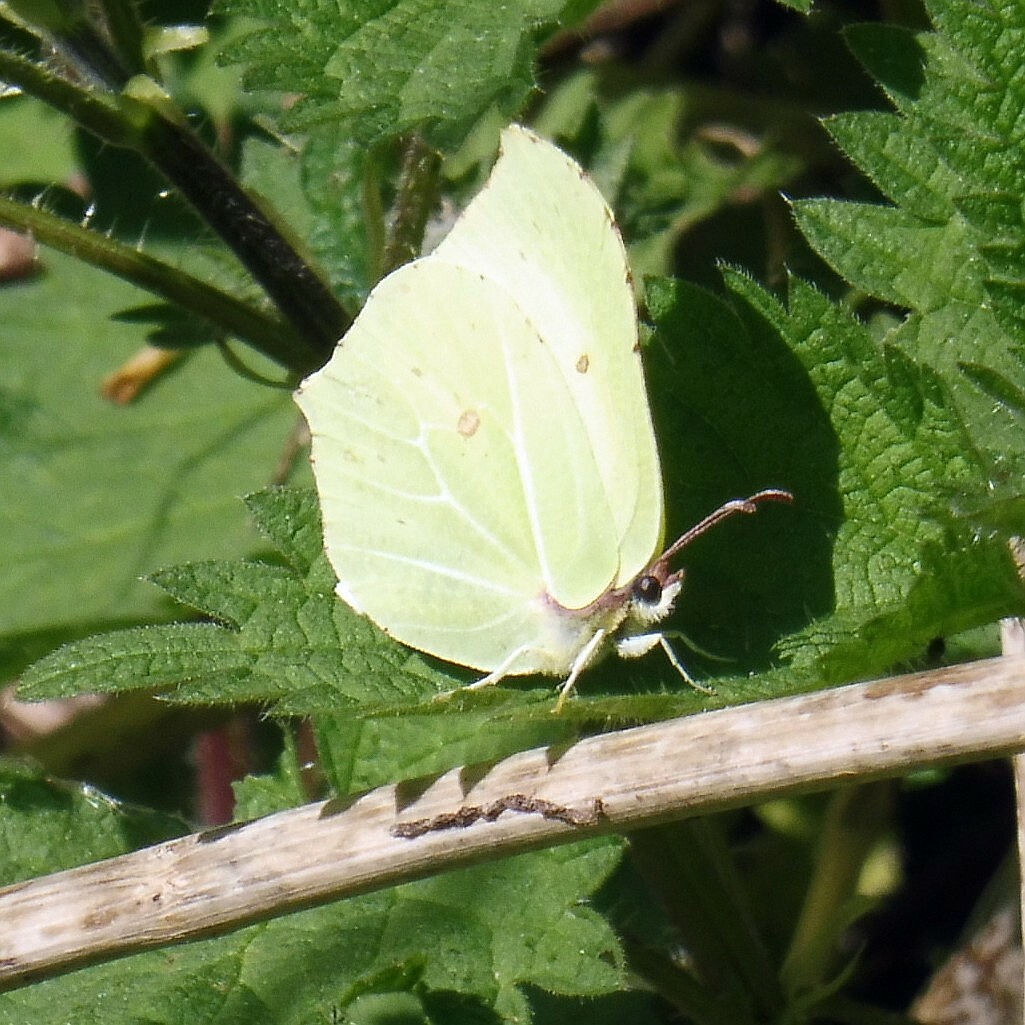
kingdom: Animalia
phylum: Arthropoda
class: Insecta
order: Lepidoptera
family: Pieridae
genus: Gonepteryx
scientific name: Gonepteryx rhamni
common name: Brimstone
